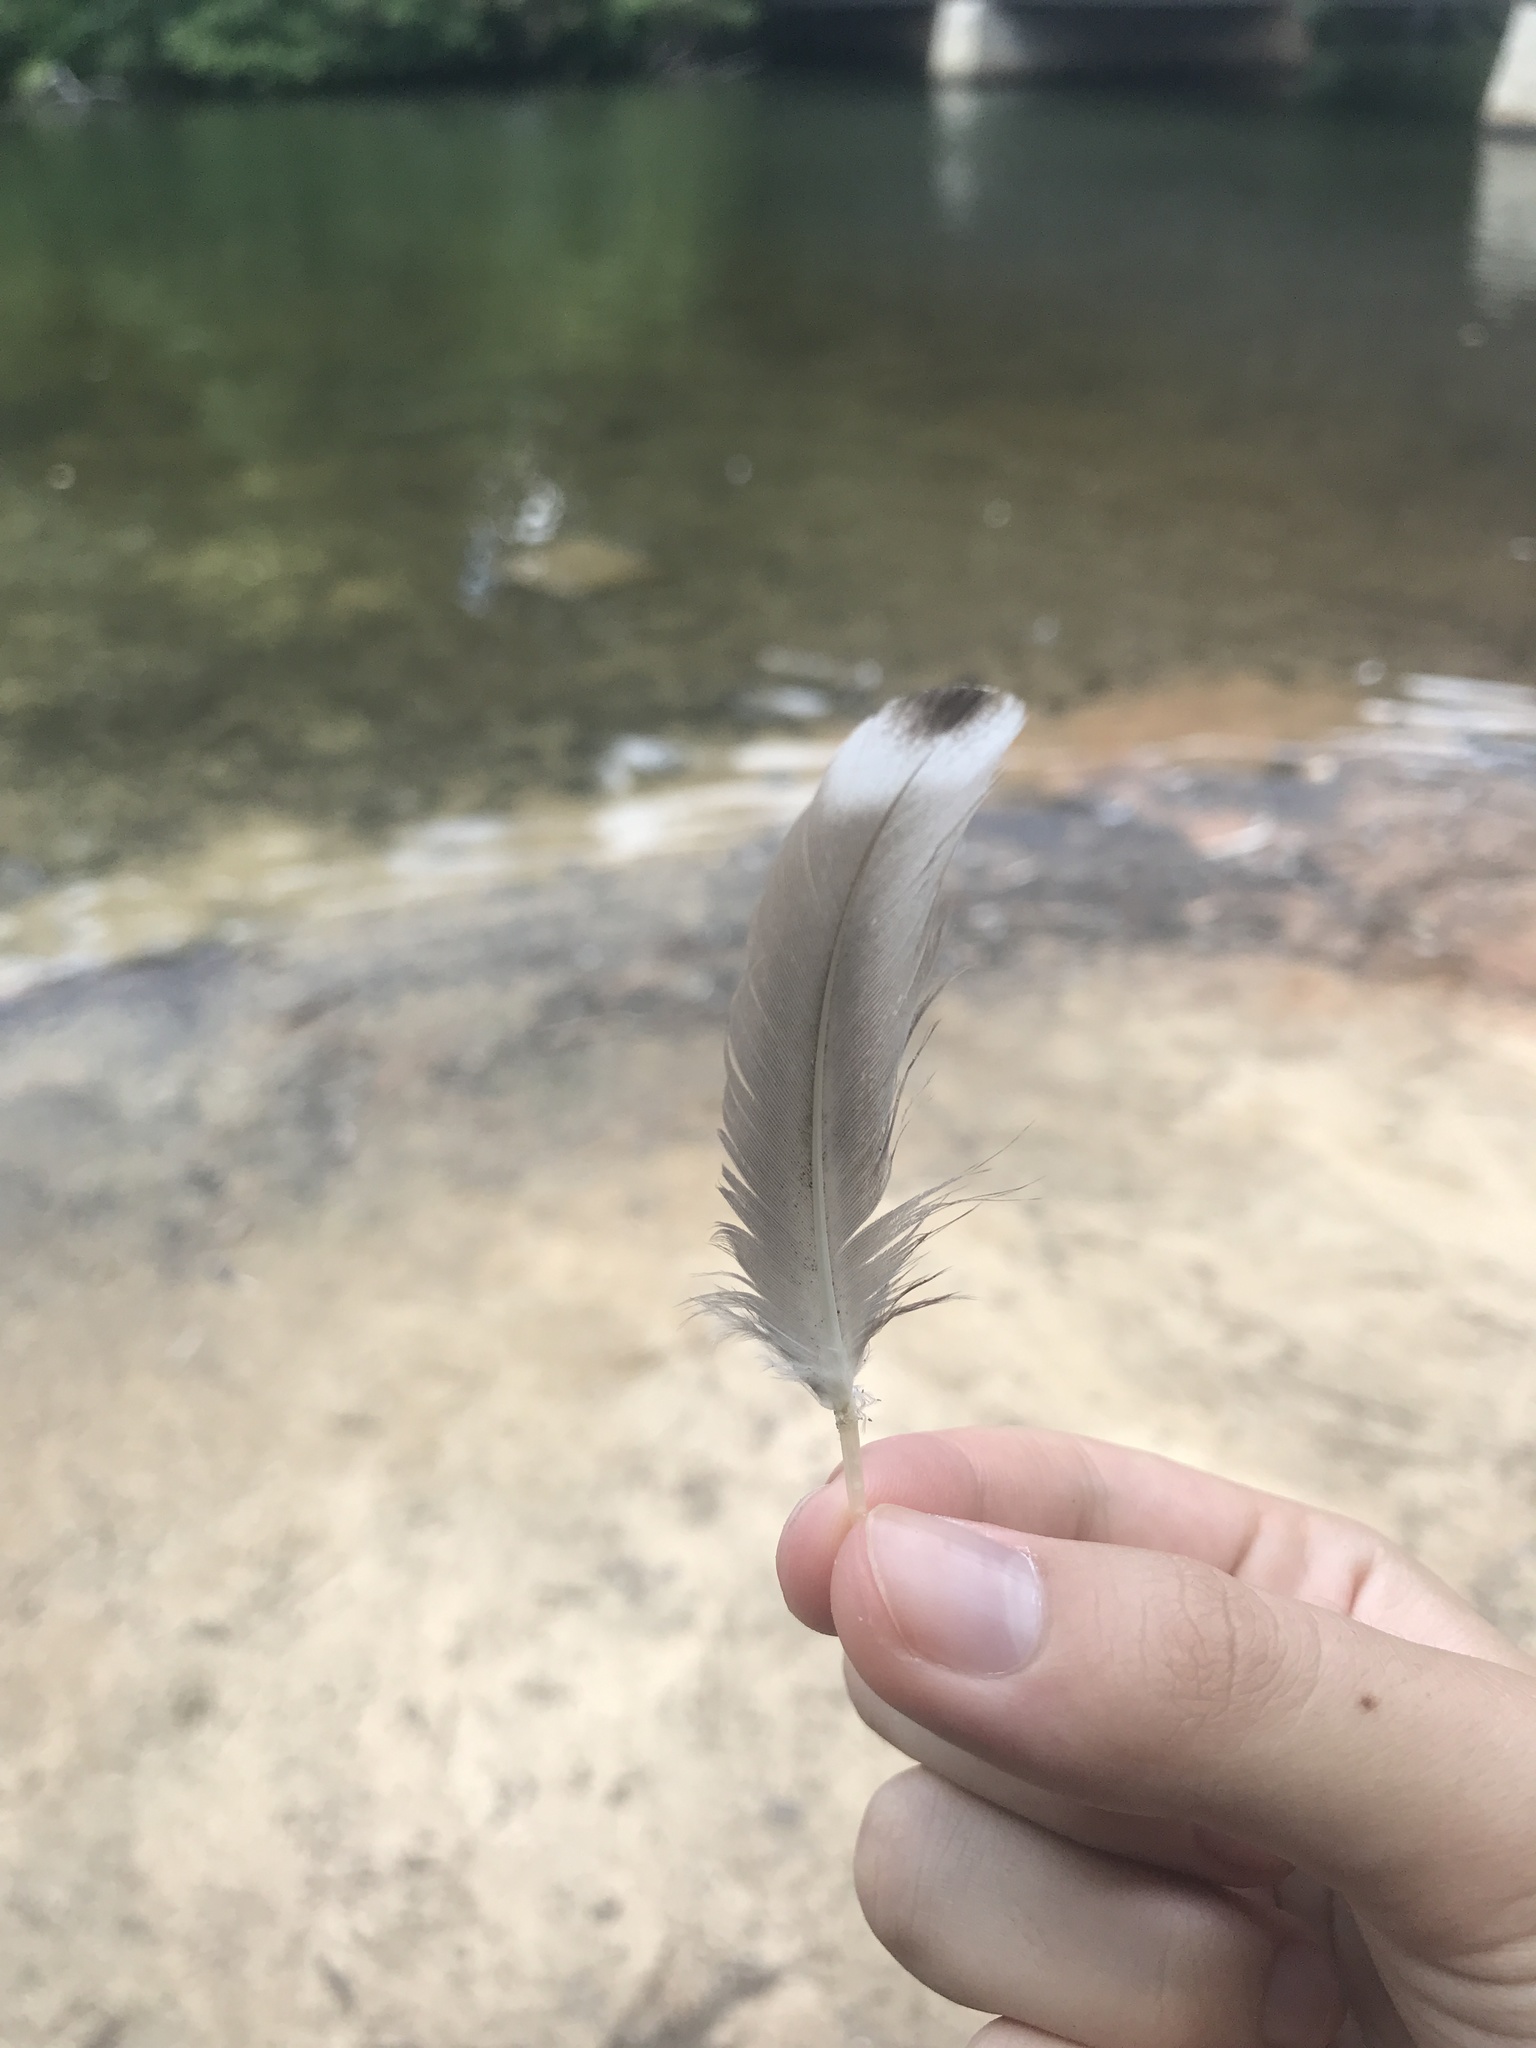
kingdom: Animalia
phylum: Chordata
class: Aves
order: Anseriformes
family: Anatidae
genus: Anas
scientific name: Anas platyrhynchos
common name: Mallard
